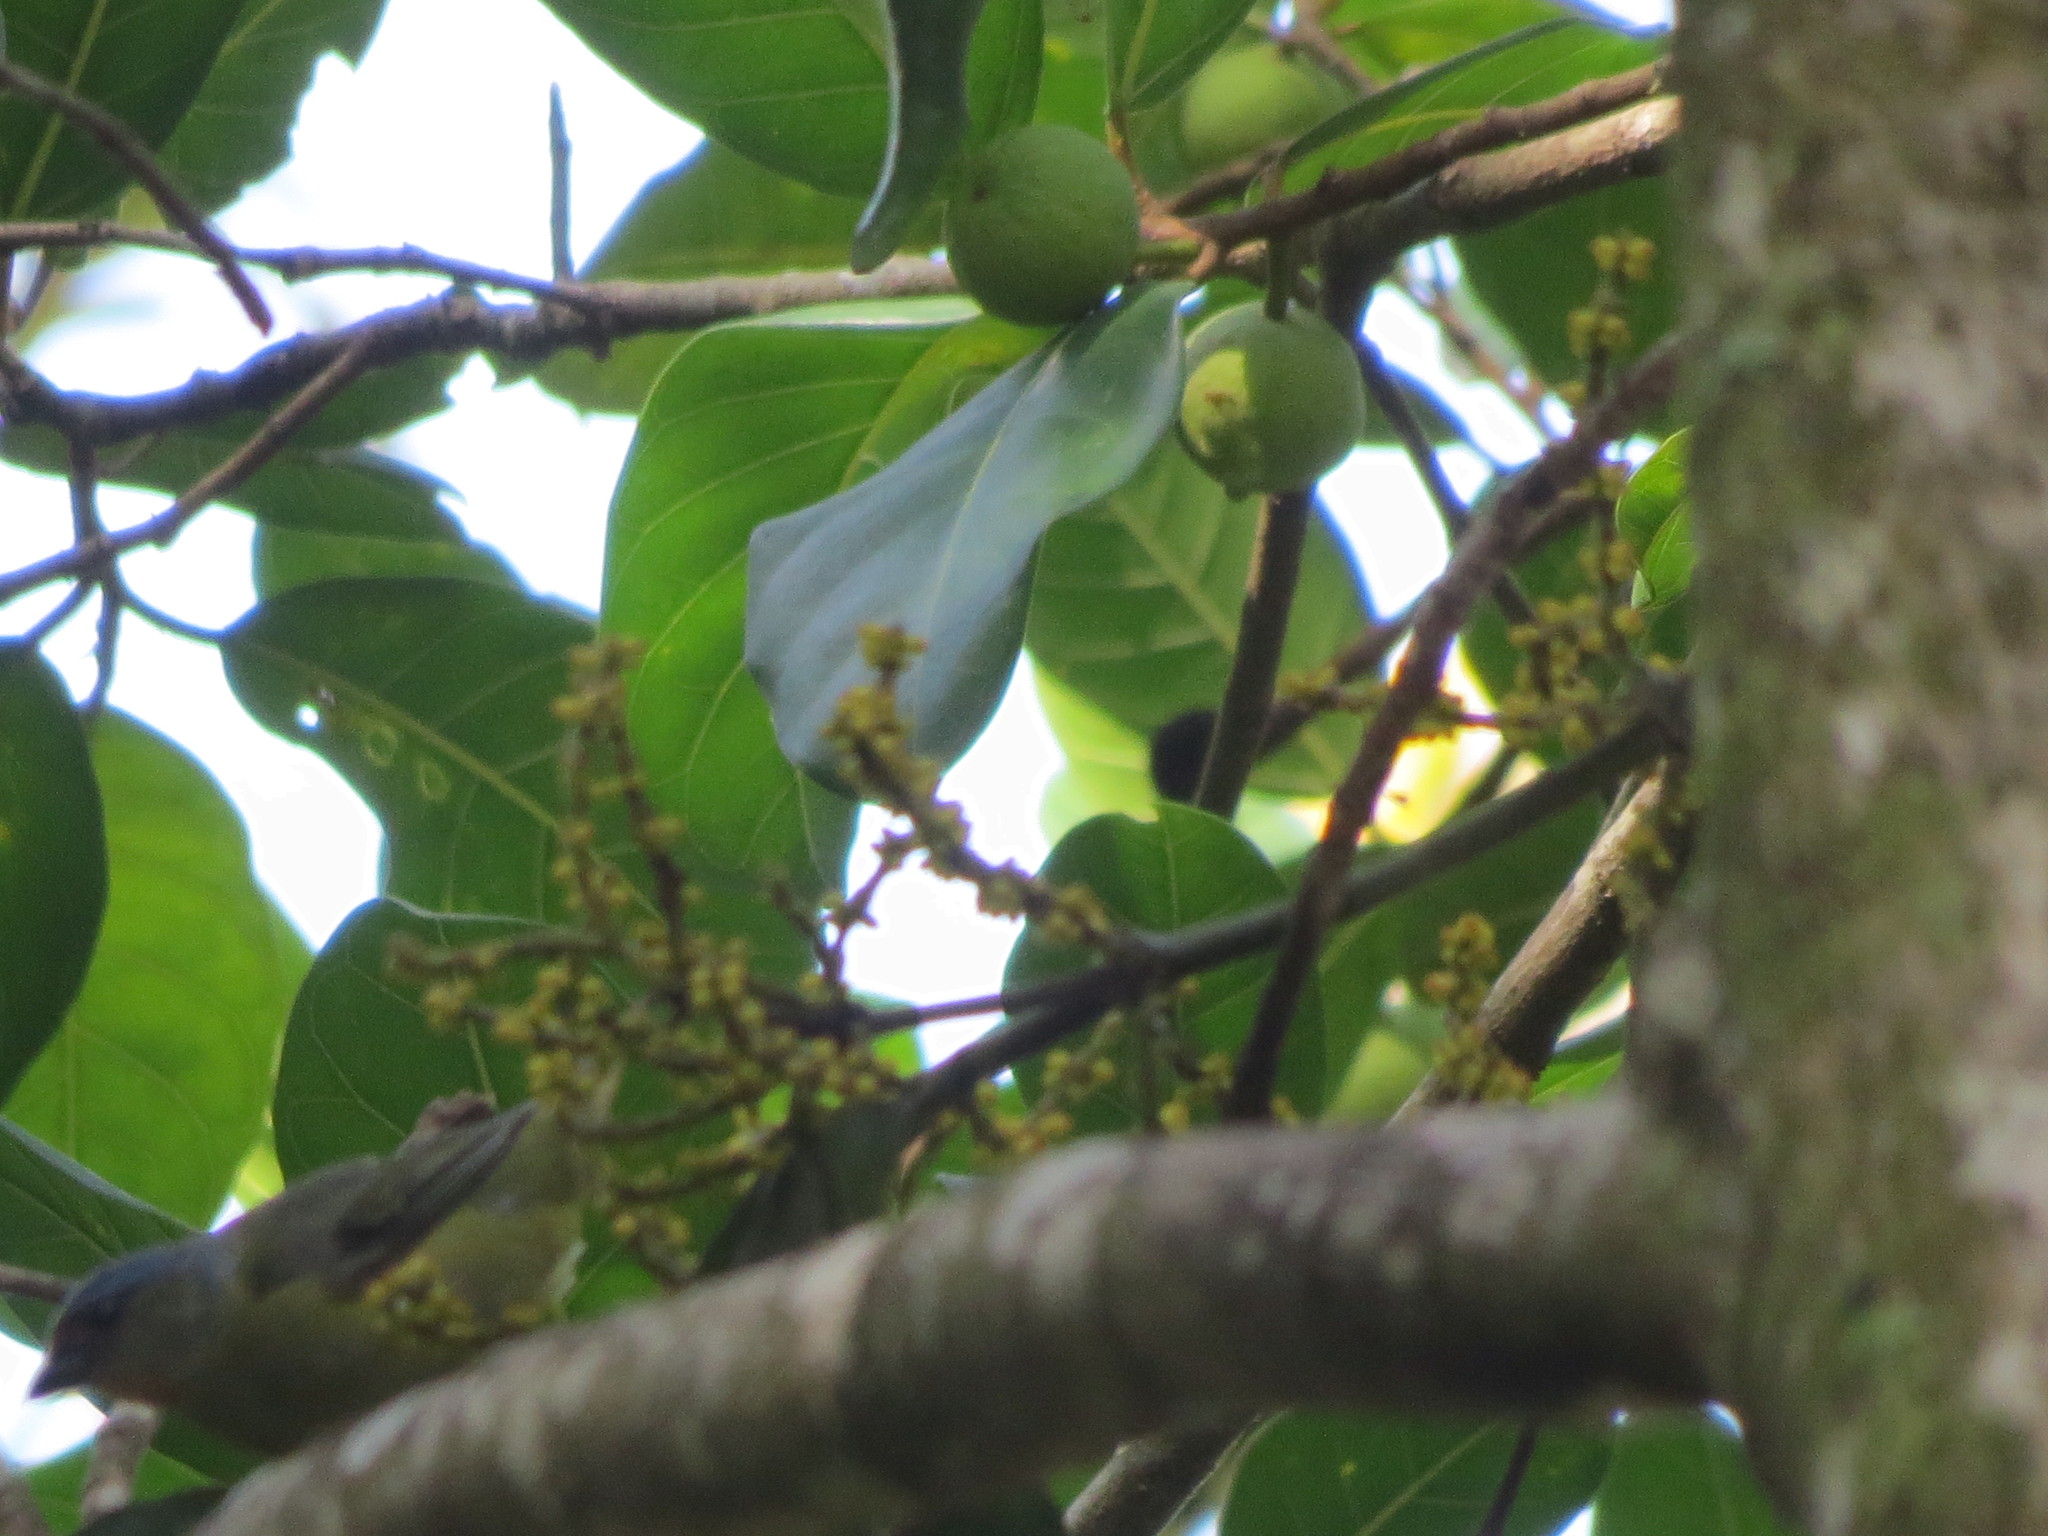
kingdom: Animalia
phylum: Chordata
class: Aves
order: Passeriformes
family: Fringillidae
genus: Euphonia
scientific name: Euphonia elegantissima
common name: Elegant euphonia
